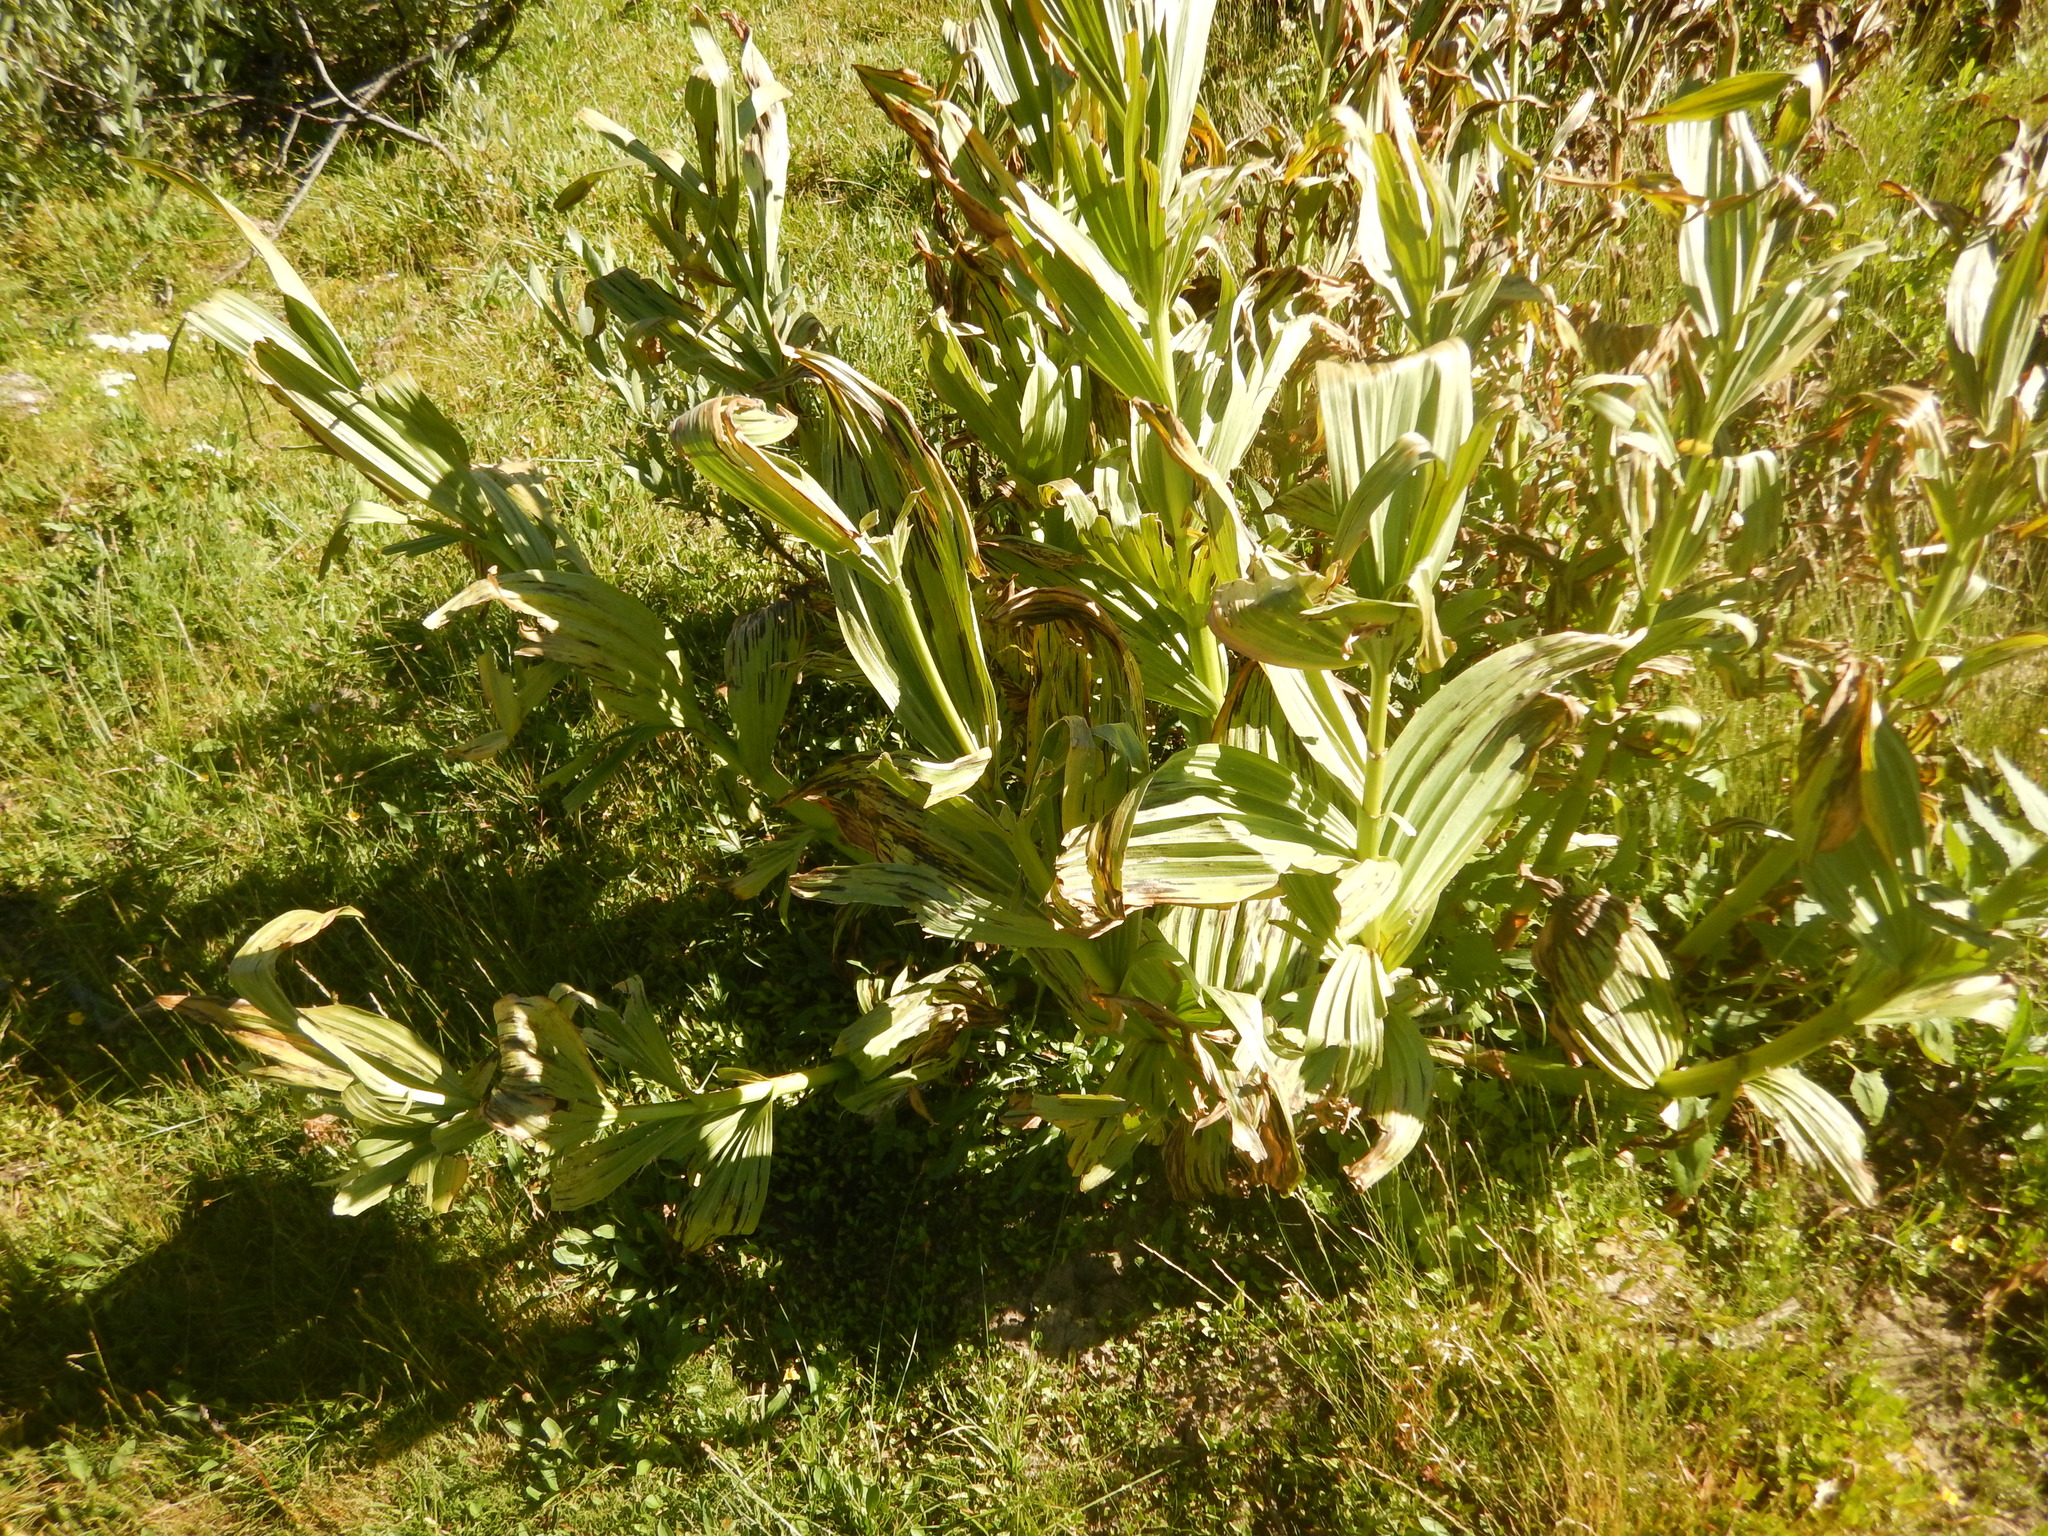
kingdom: Plantae
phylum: Tracheophyta
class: Liliopsida
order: Liliales
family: Melanthiaceae
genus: Veratrum
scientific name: Veratrum californicum
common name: California veratrum
